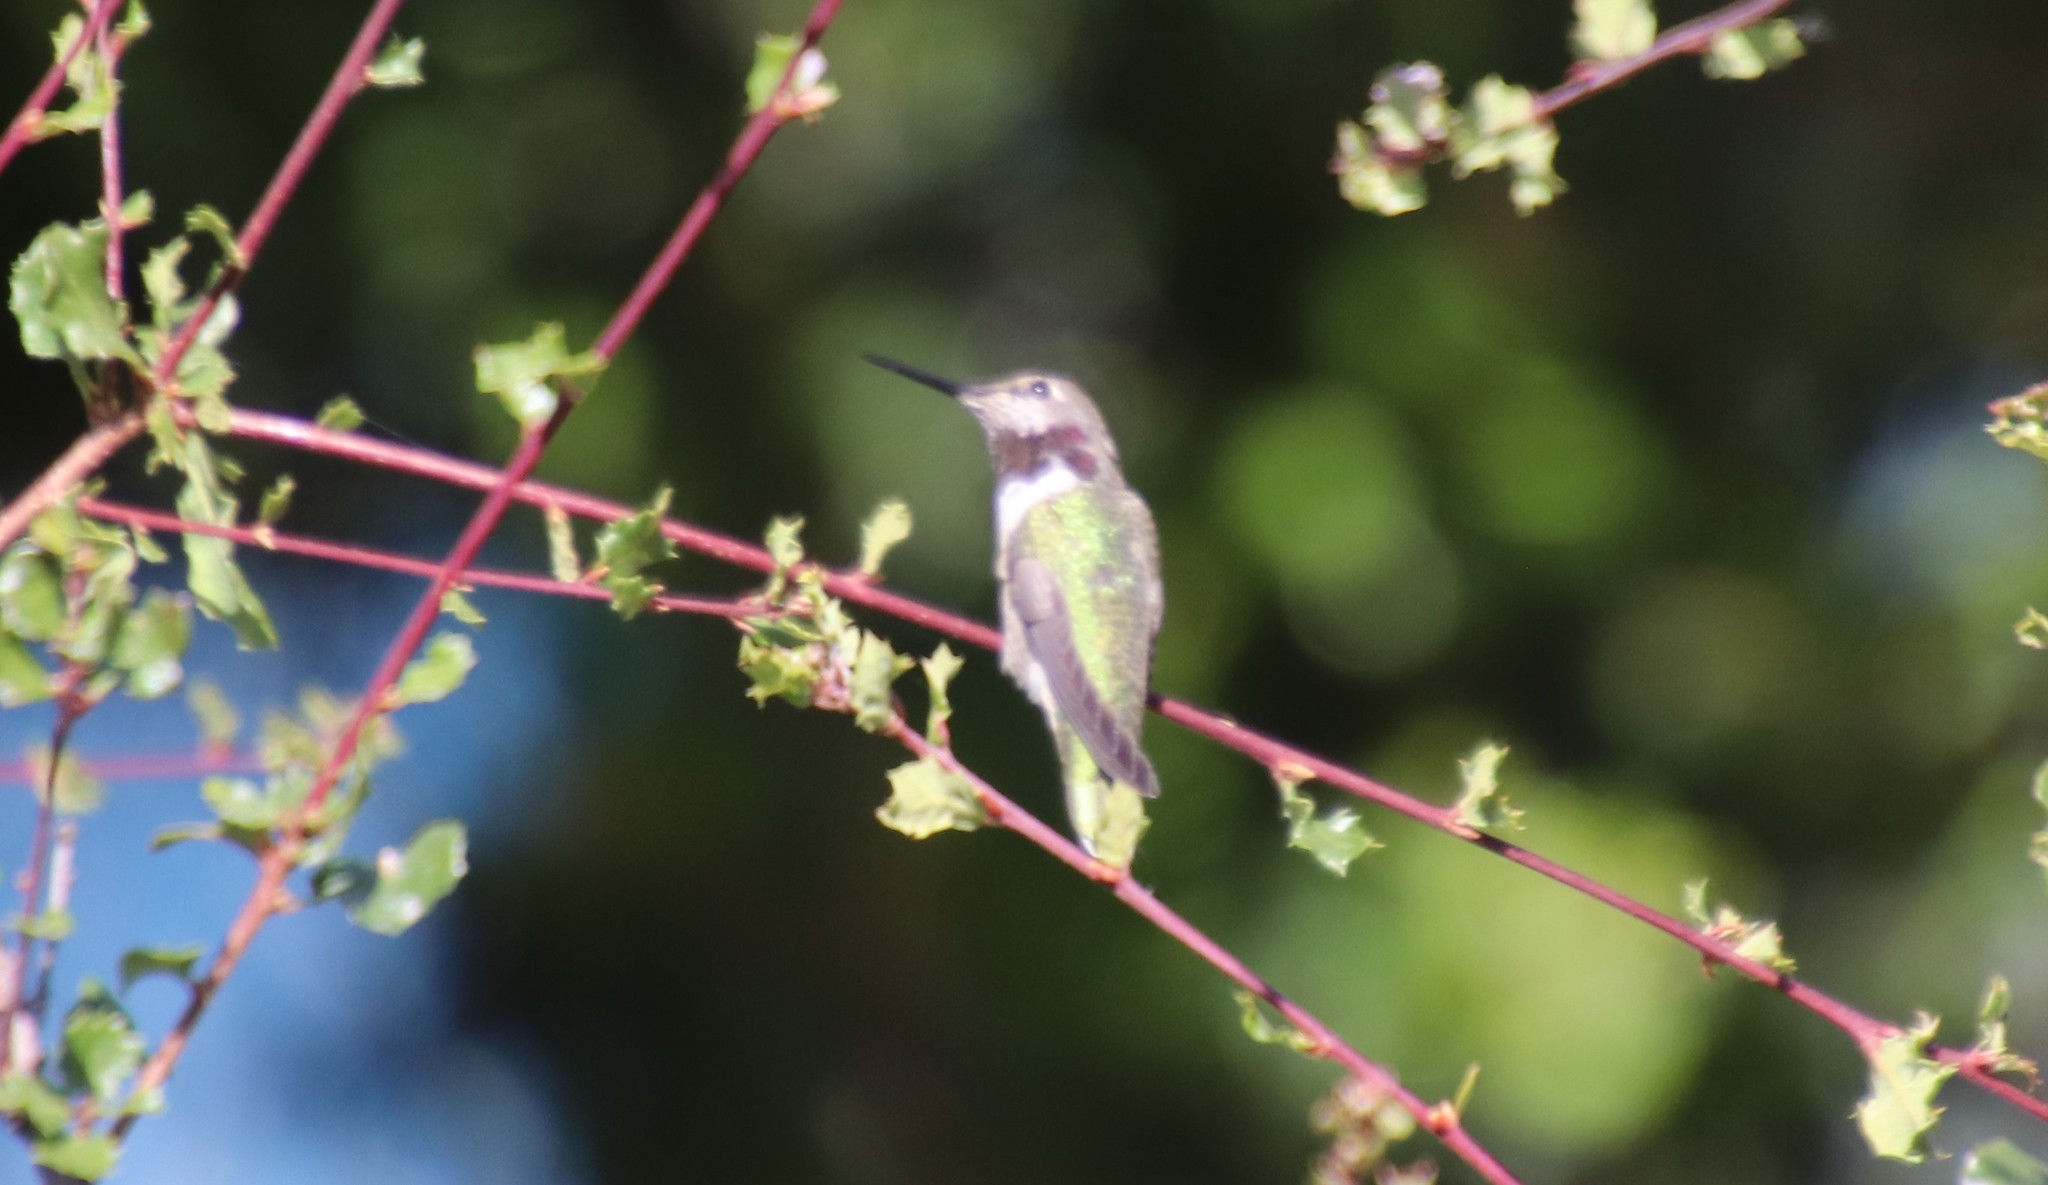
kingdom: Animalia
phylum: Chordata
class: Aves
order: Apodiformes
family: Trochilidae
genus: Calypte
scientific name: Calypte anna
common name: Anna's hummingbird
